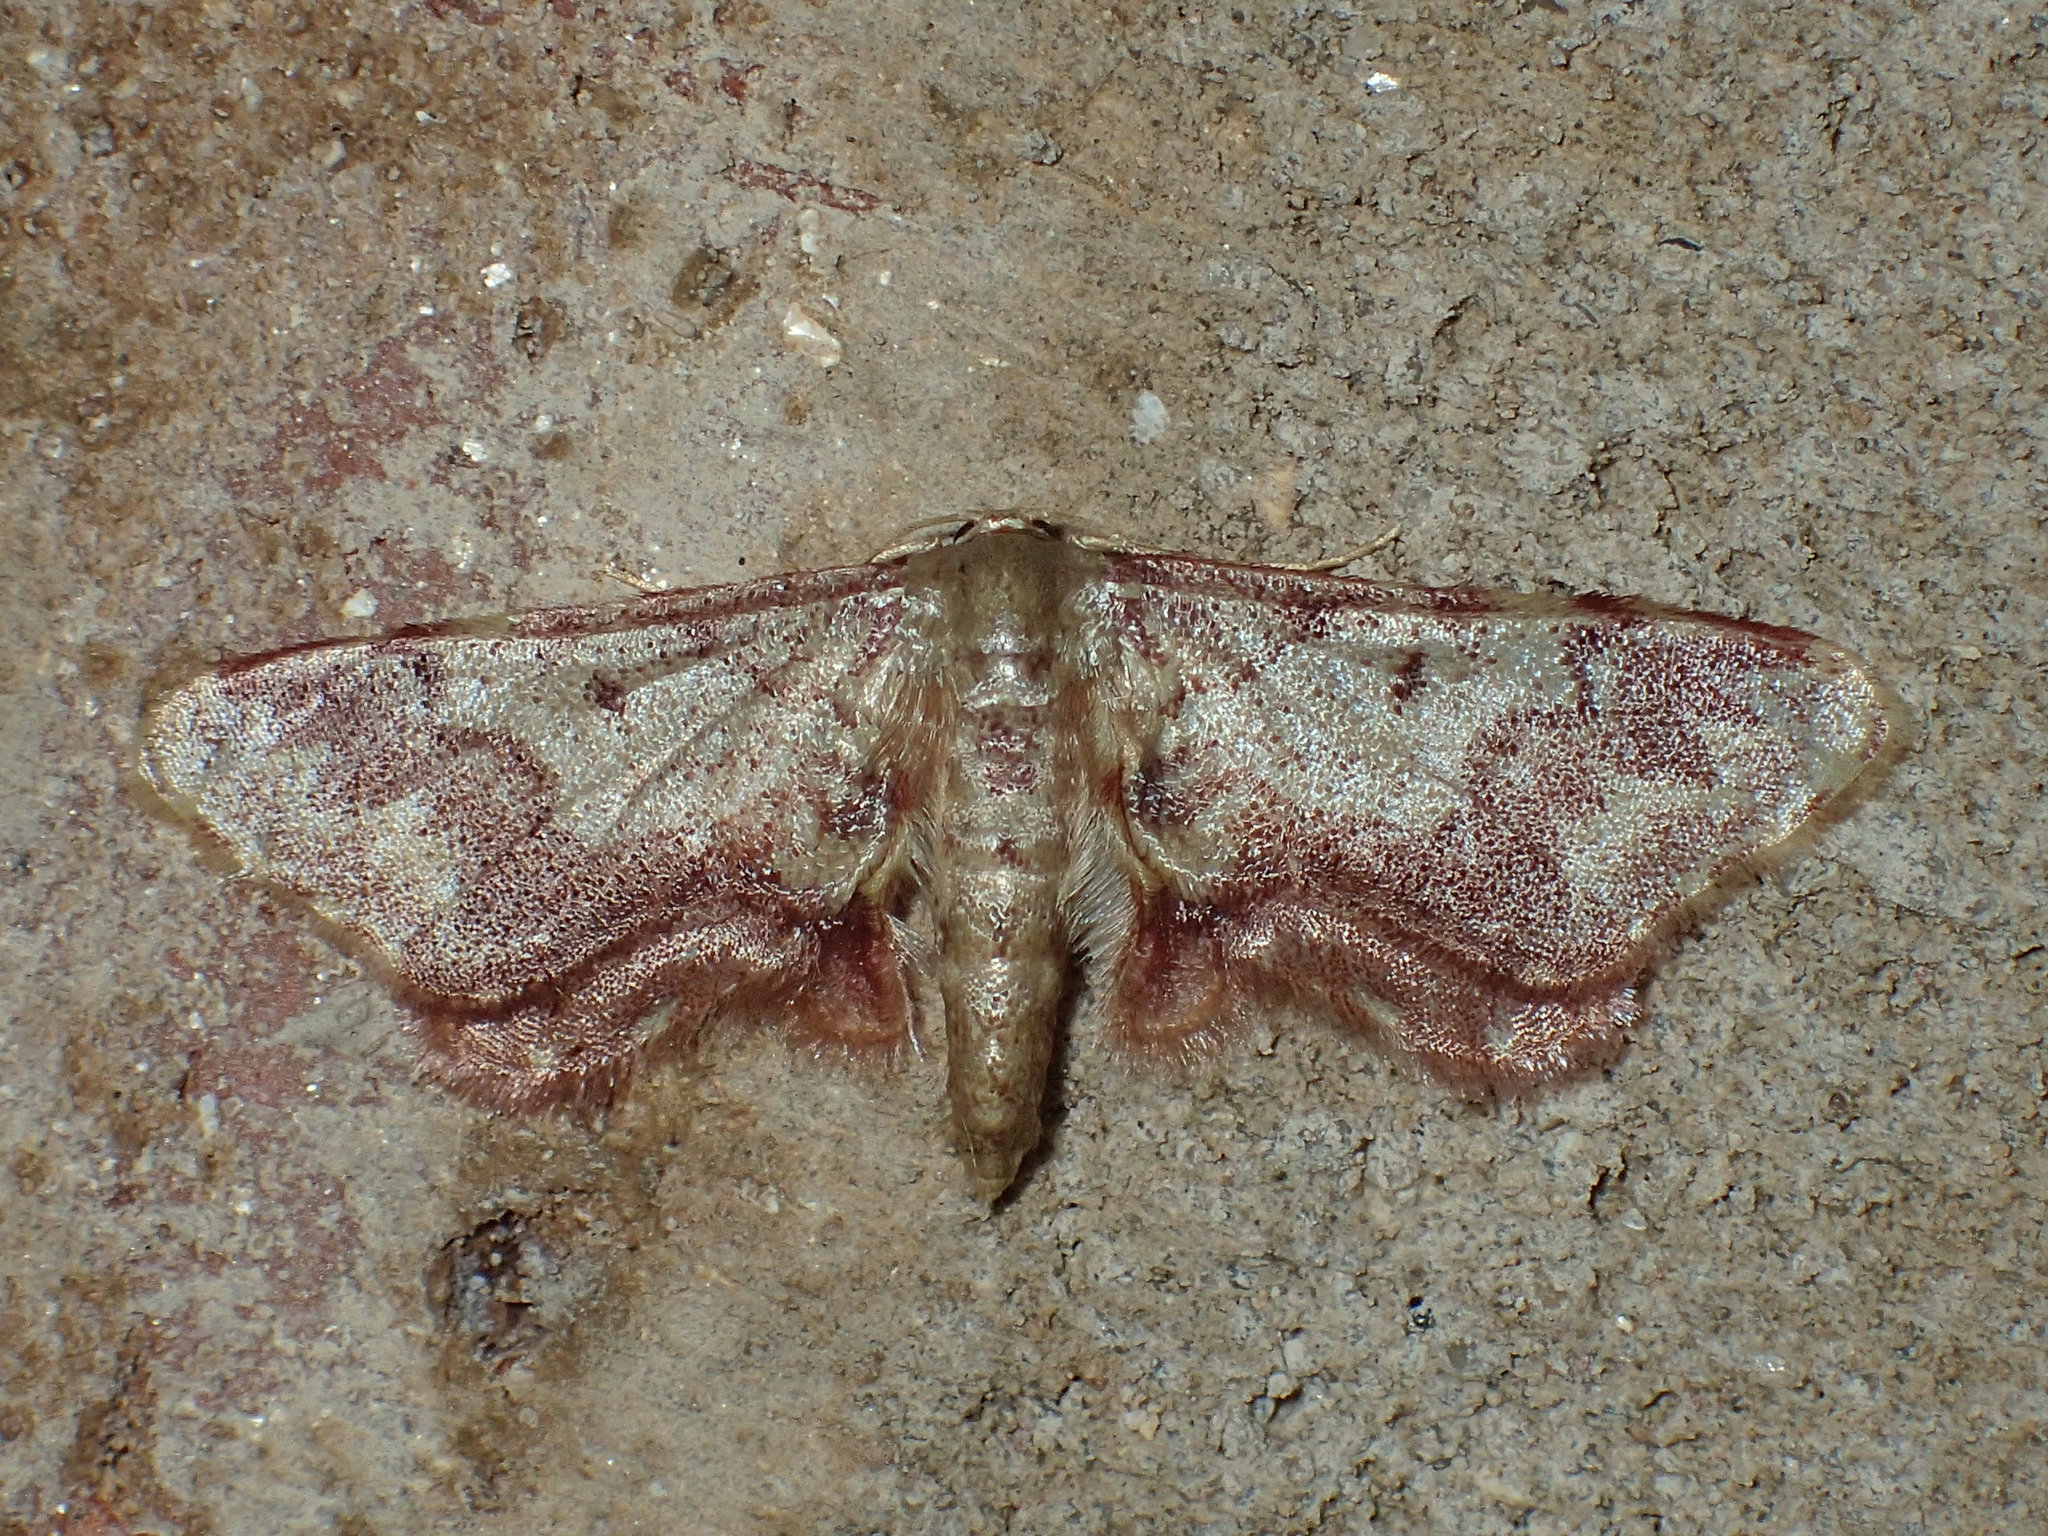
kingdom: Animalia
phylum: Arthropoda
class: Insecta
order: Lepidoptera
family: Geometridae
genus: Idaea
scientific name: Idaea furciferata
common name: Notch-winged wave
